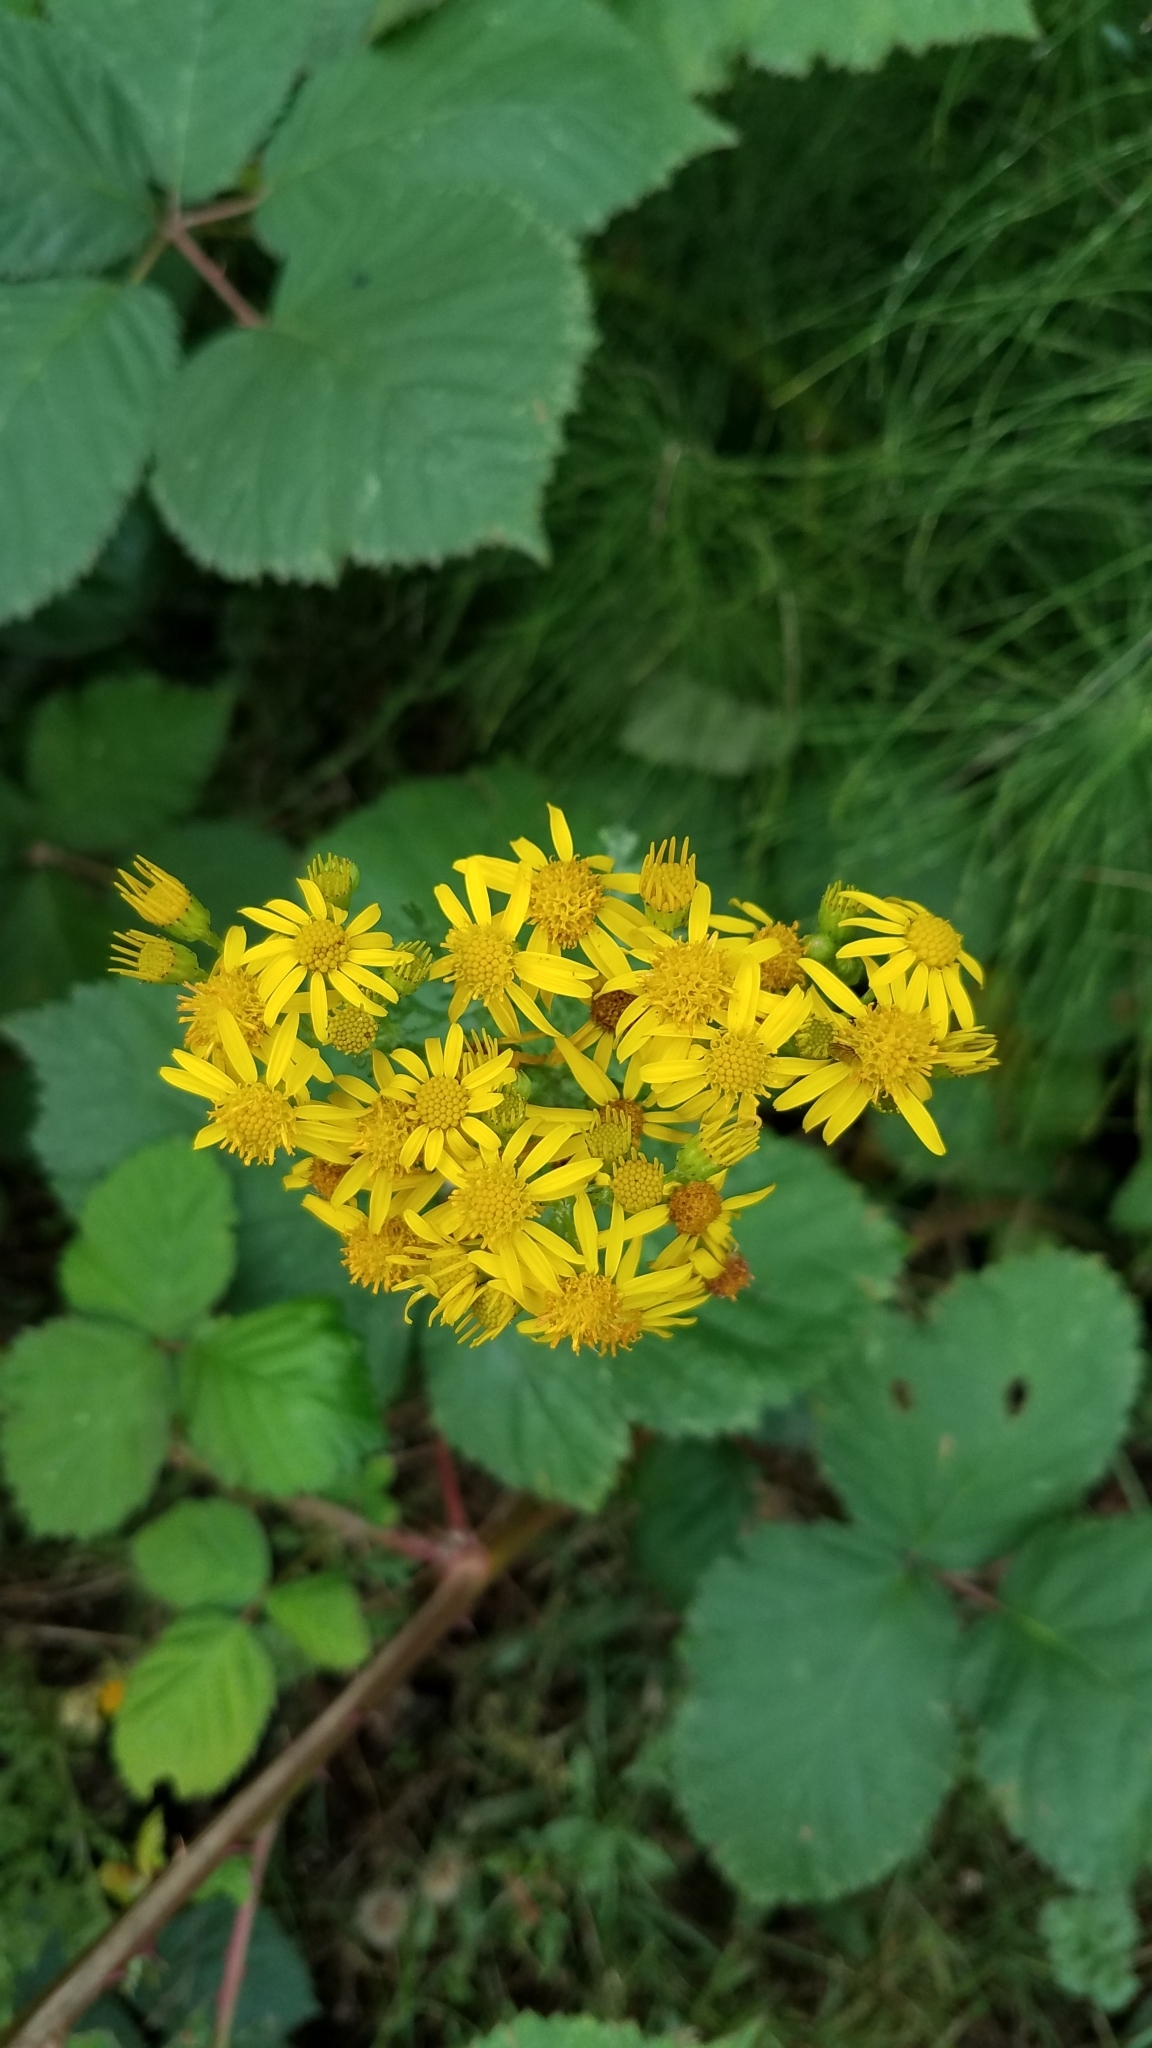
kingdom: Plantae
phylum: Tracheophyta
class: Magnoliopsida
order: Asterales
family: Asteraceae
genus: Jacobaea
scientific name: Jacobaea vulgaris
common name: Stinking willie
